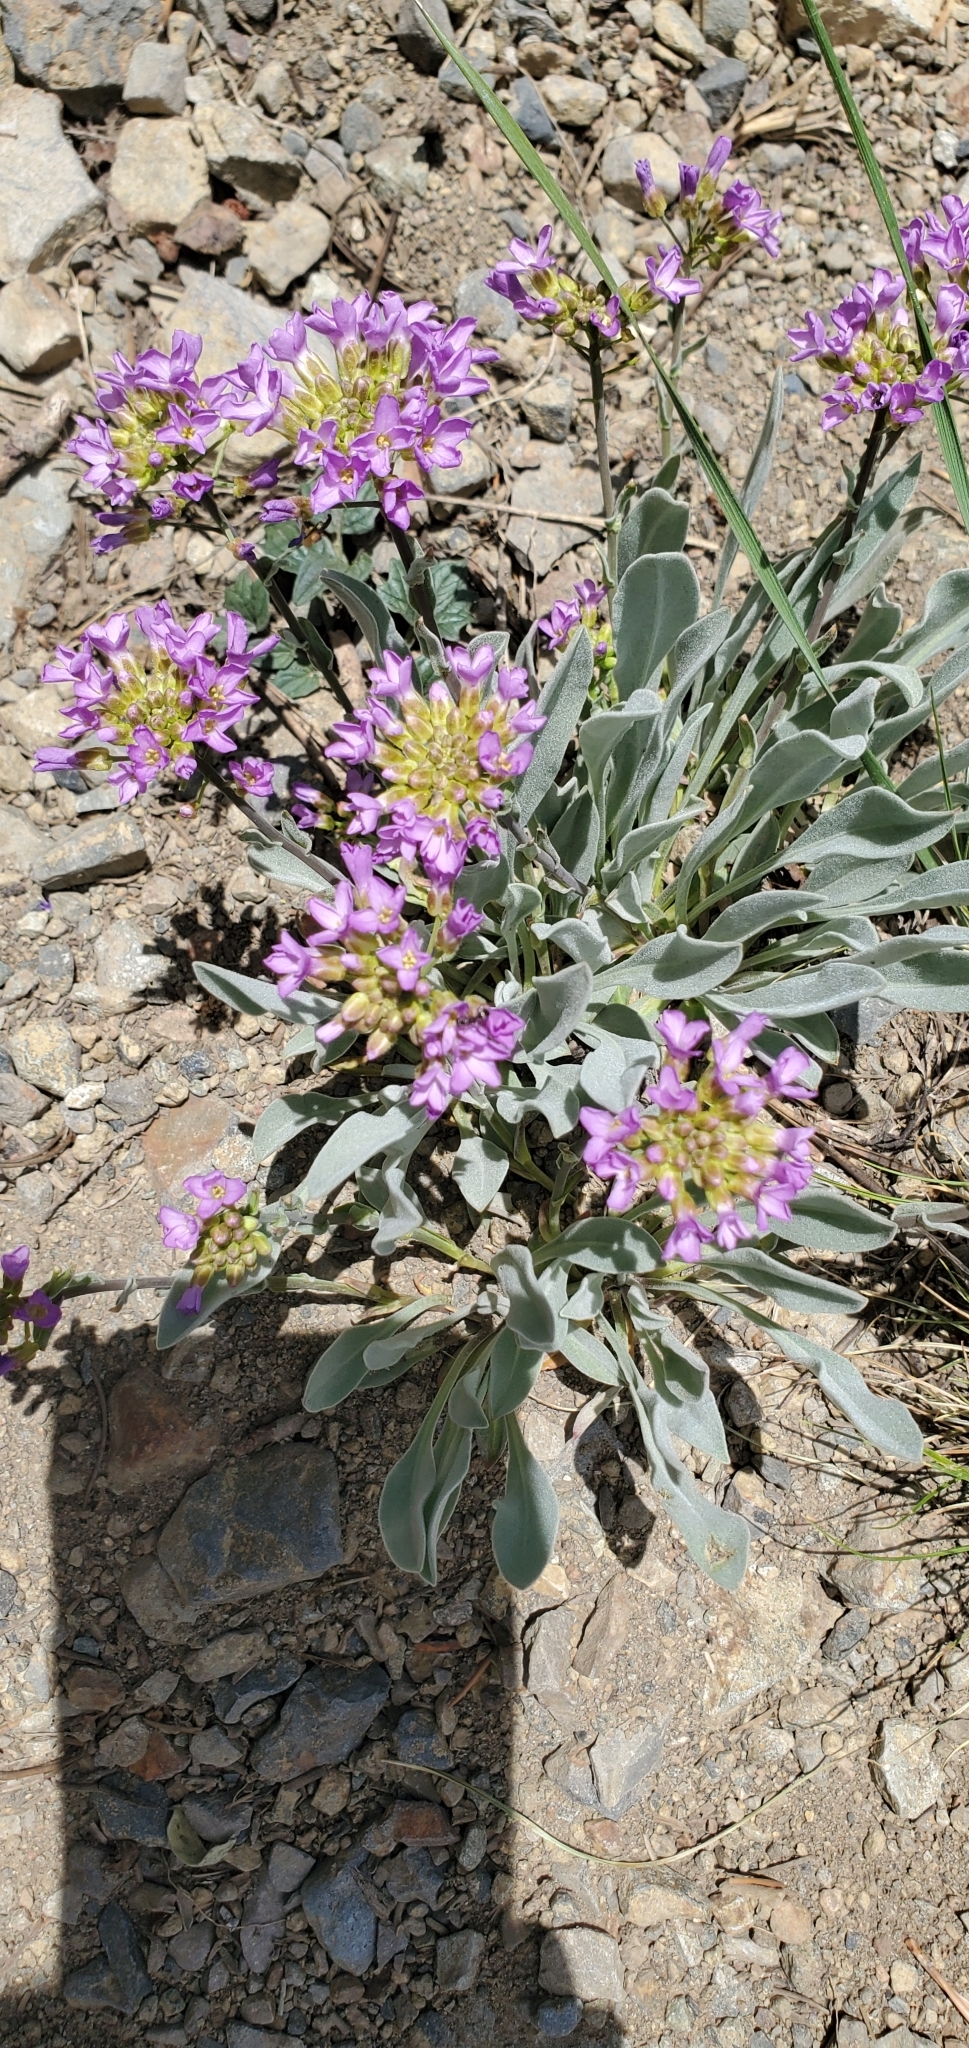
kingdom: Plantae
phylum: Tracheophyta
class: Magnoliopsida
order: Brassicales
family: Brassicaceae
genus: Phoenicaulis
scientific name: Phoenicaulis cheiranthoides
